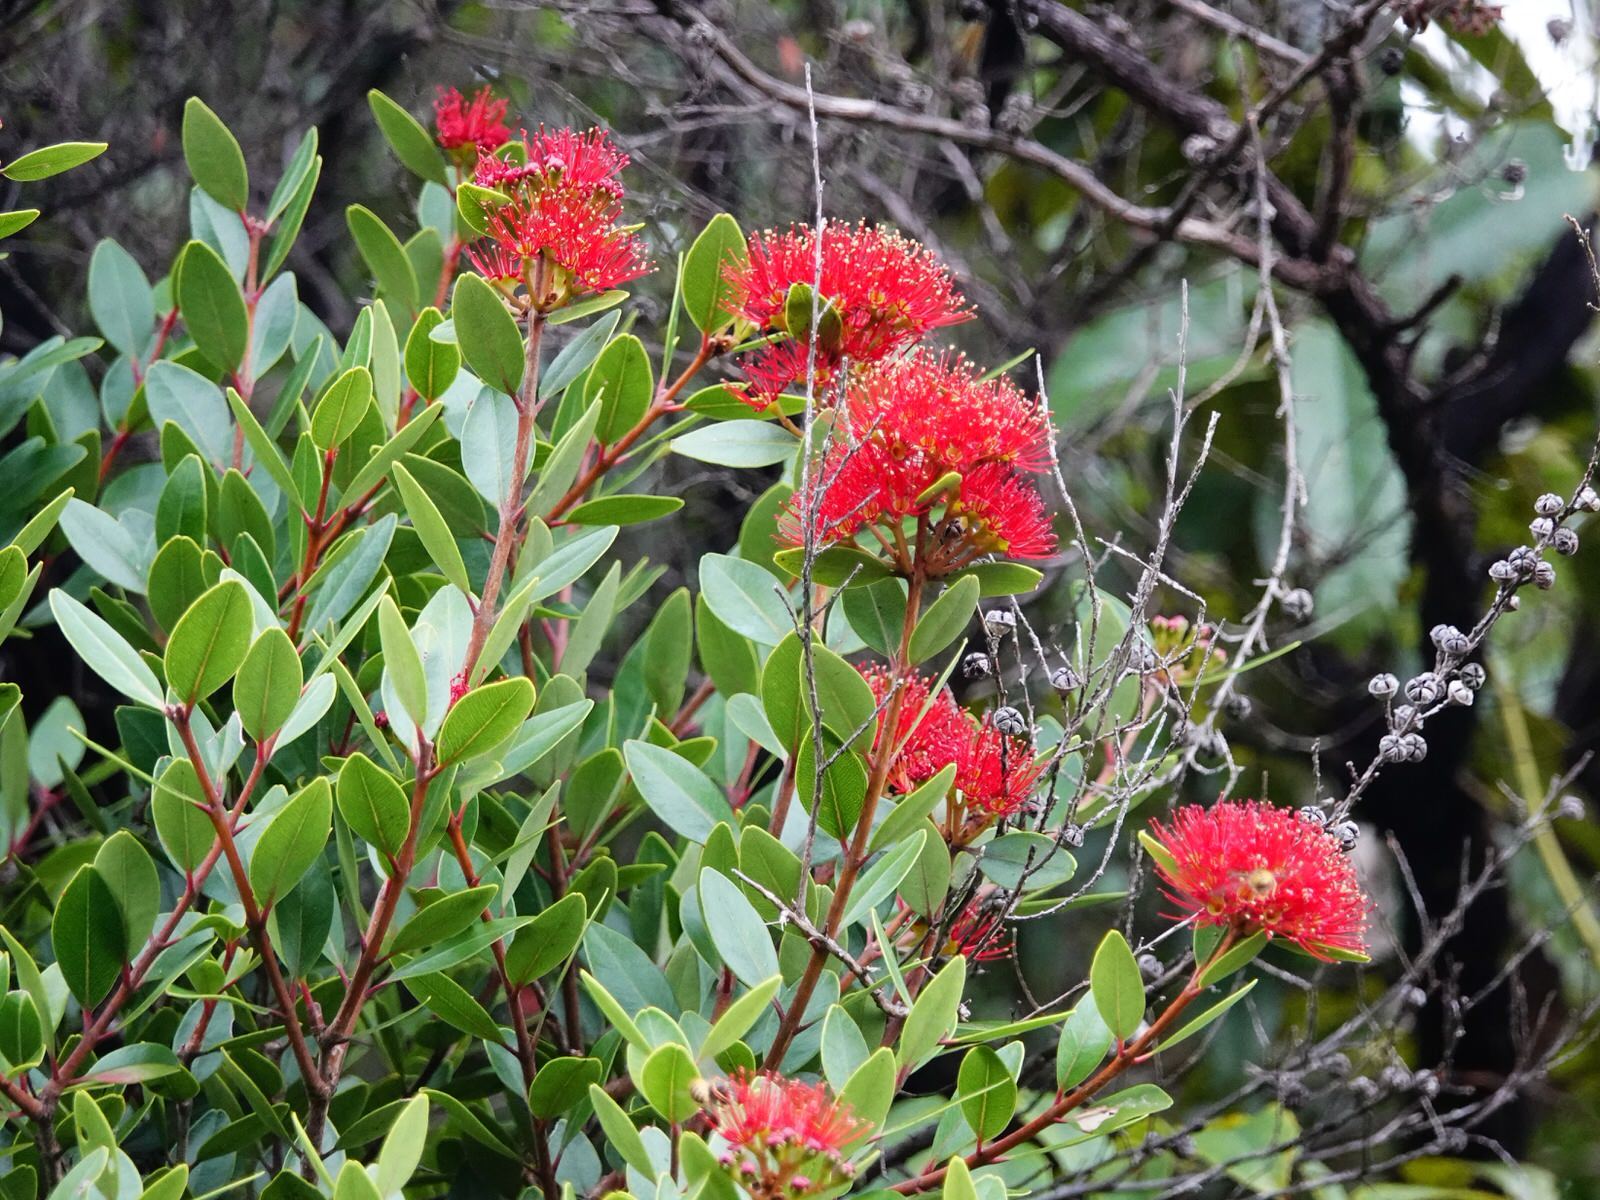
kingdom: Plantae
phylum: Tracheophyta
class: Magnoliopsida
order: Myrtales
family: Myrtaceae
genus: Metrosideros
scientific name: Metrosideros robusta
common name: Northern rata
